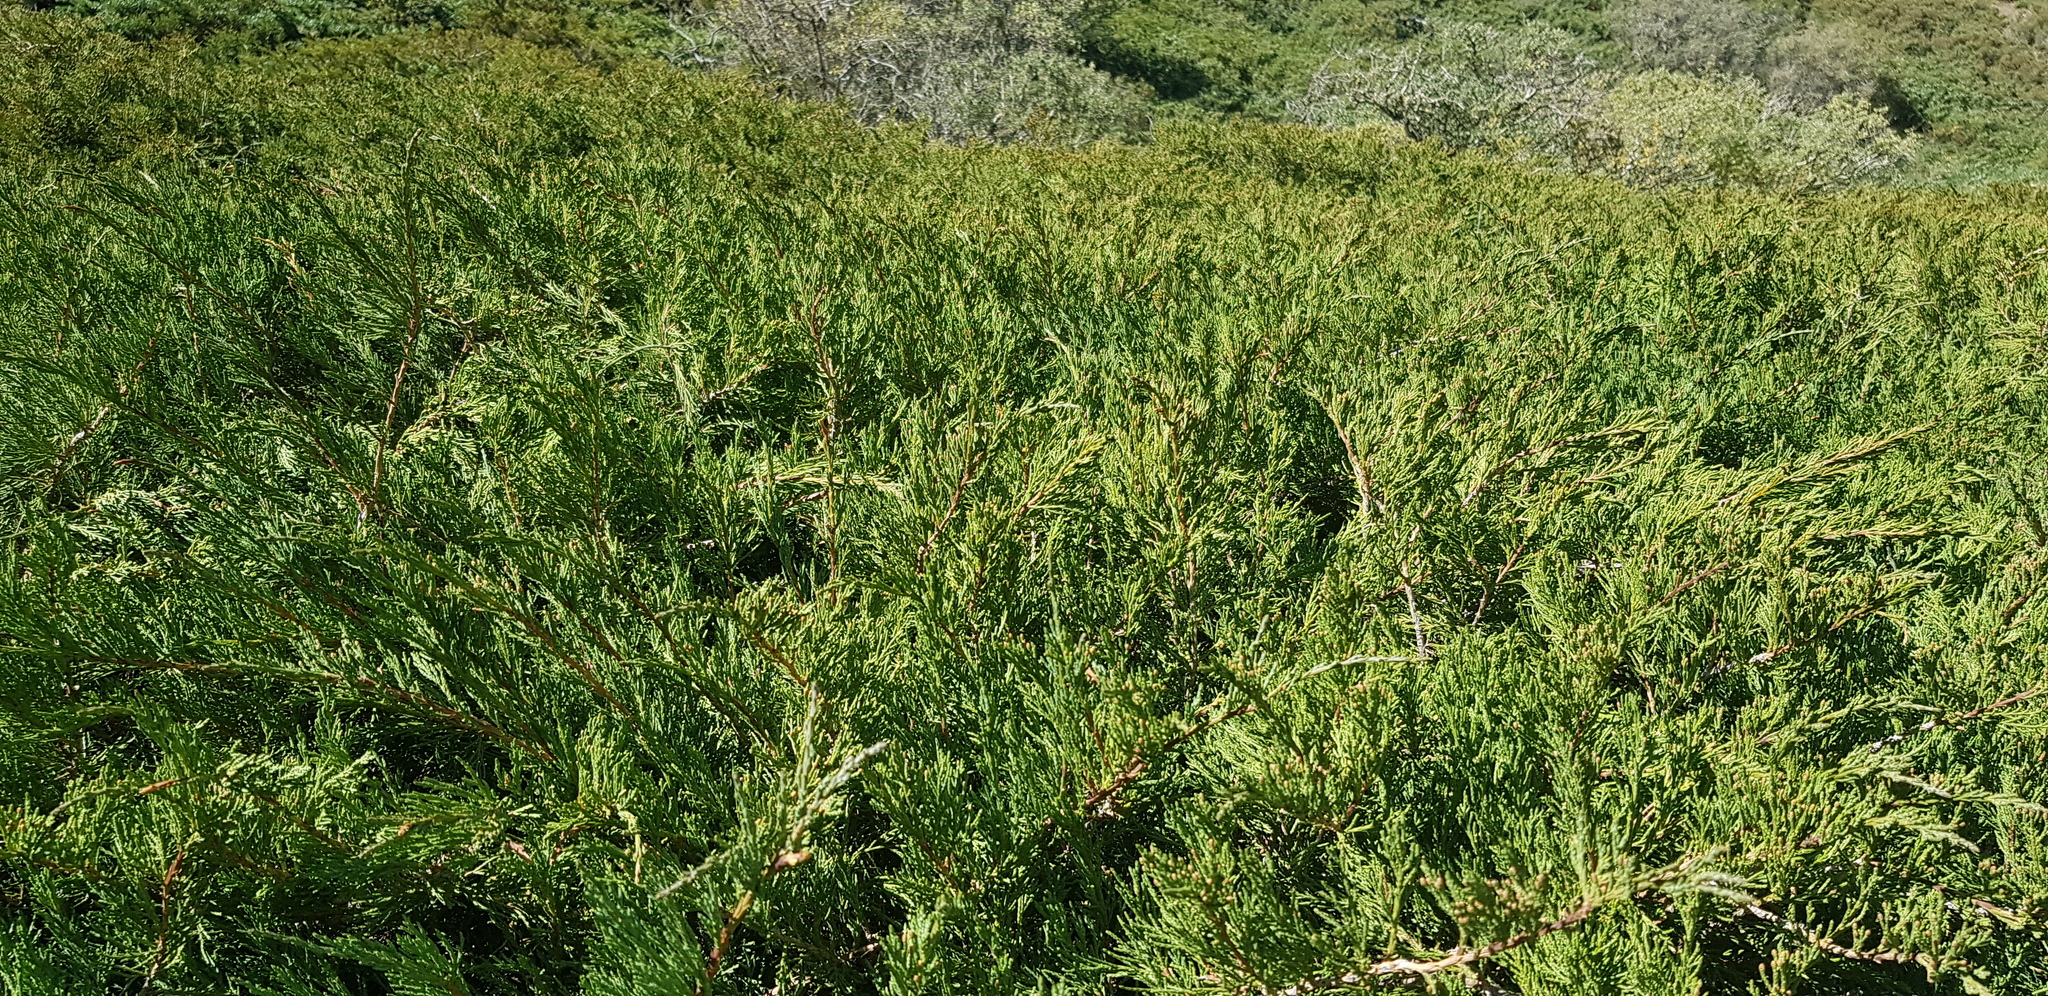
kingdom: Plantae
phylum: Tracheophyta
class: Pinopsida
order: Pinales
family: Cupressaceae
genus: Juniperus
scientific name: Juniperus pseudosabina
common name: Turkestan juniper
